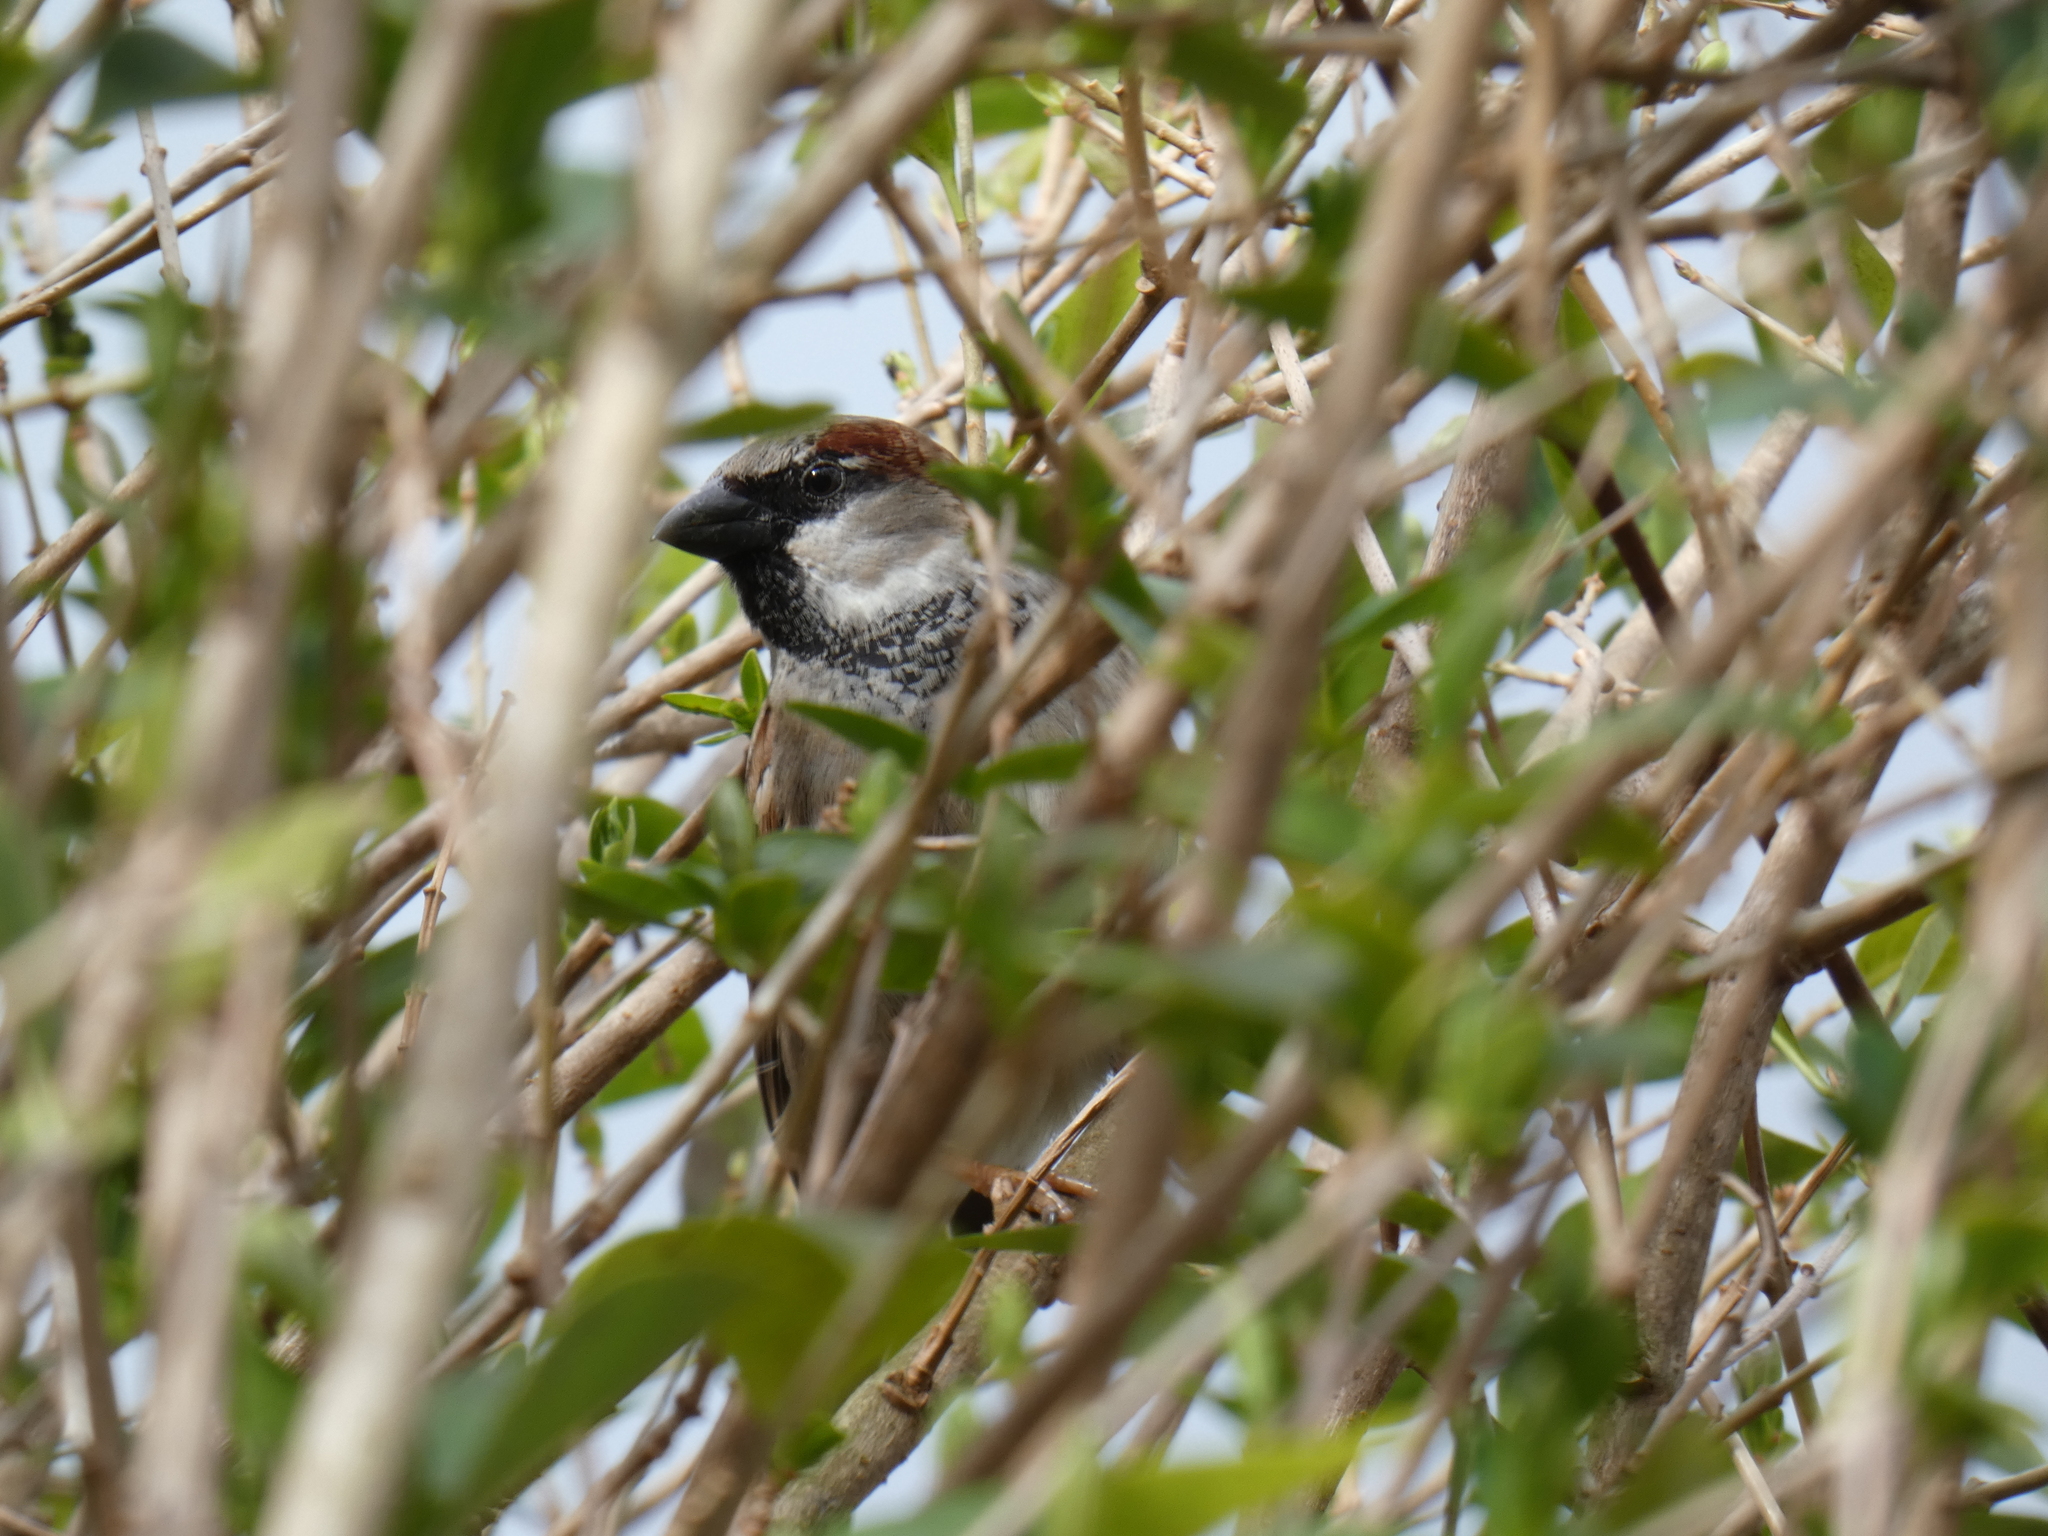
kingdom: Animalia
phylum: Chordata
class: Aves
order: Passeriformes
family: Passeridae
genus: Passer
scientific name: Passer domesticus
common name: House sparrow
